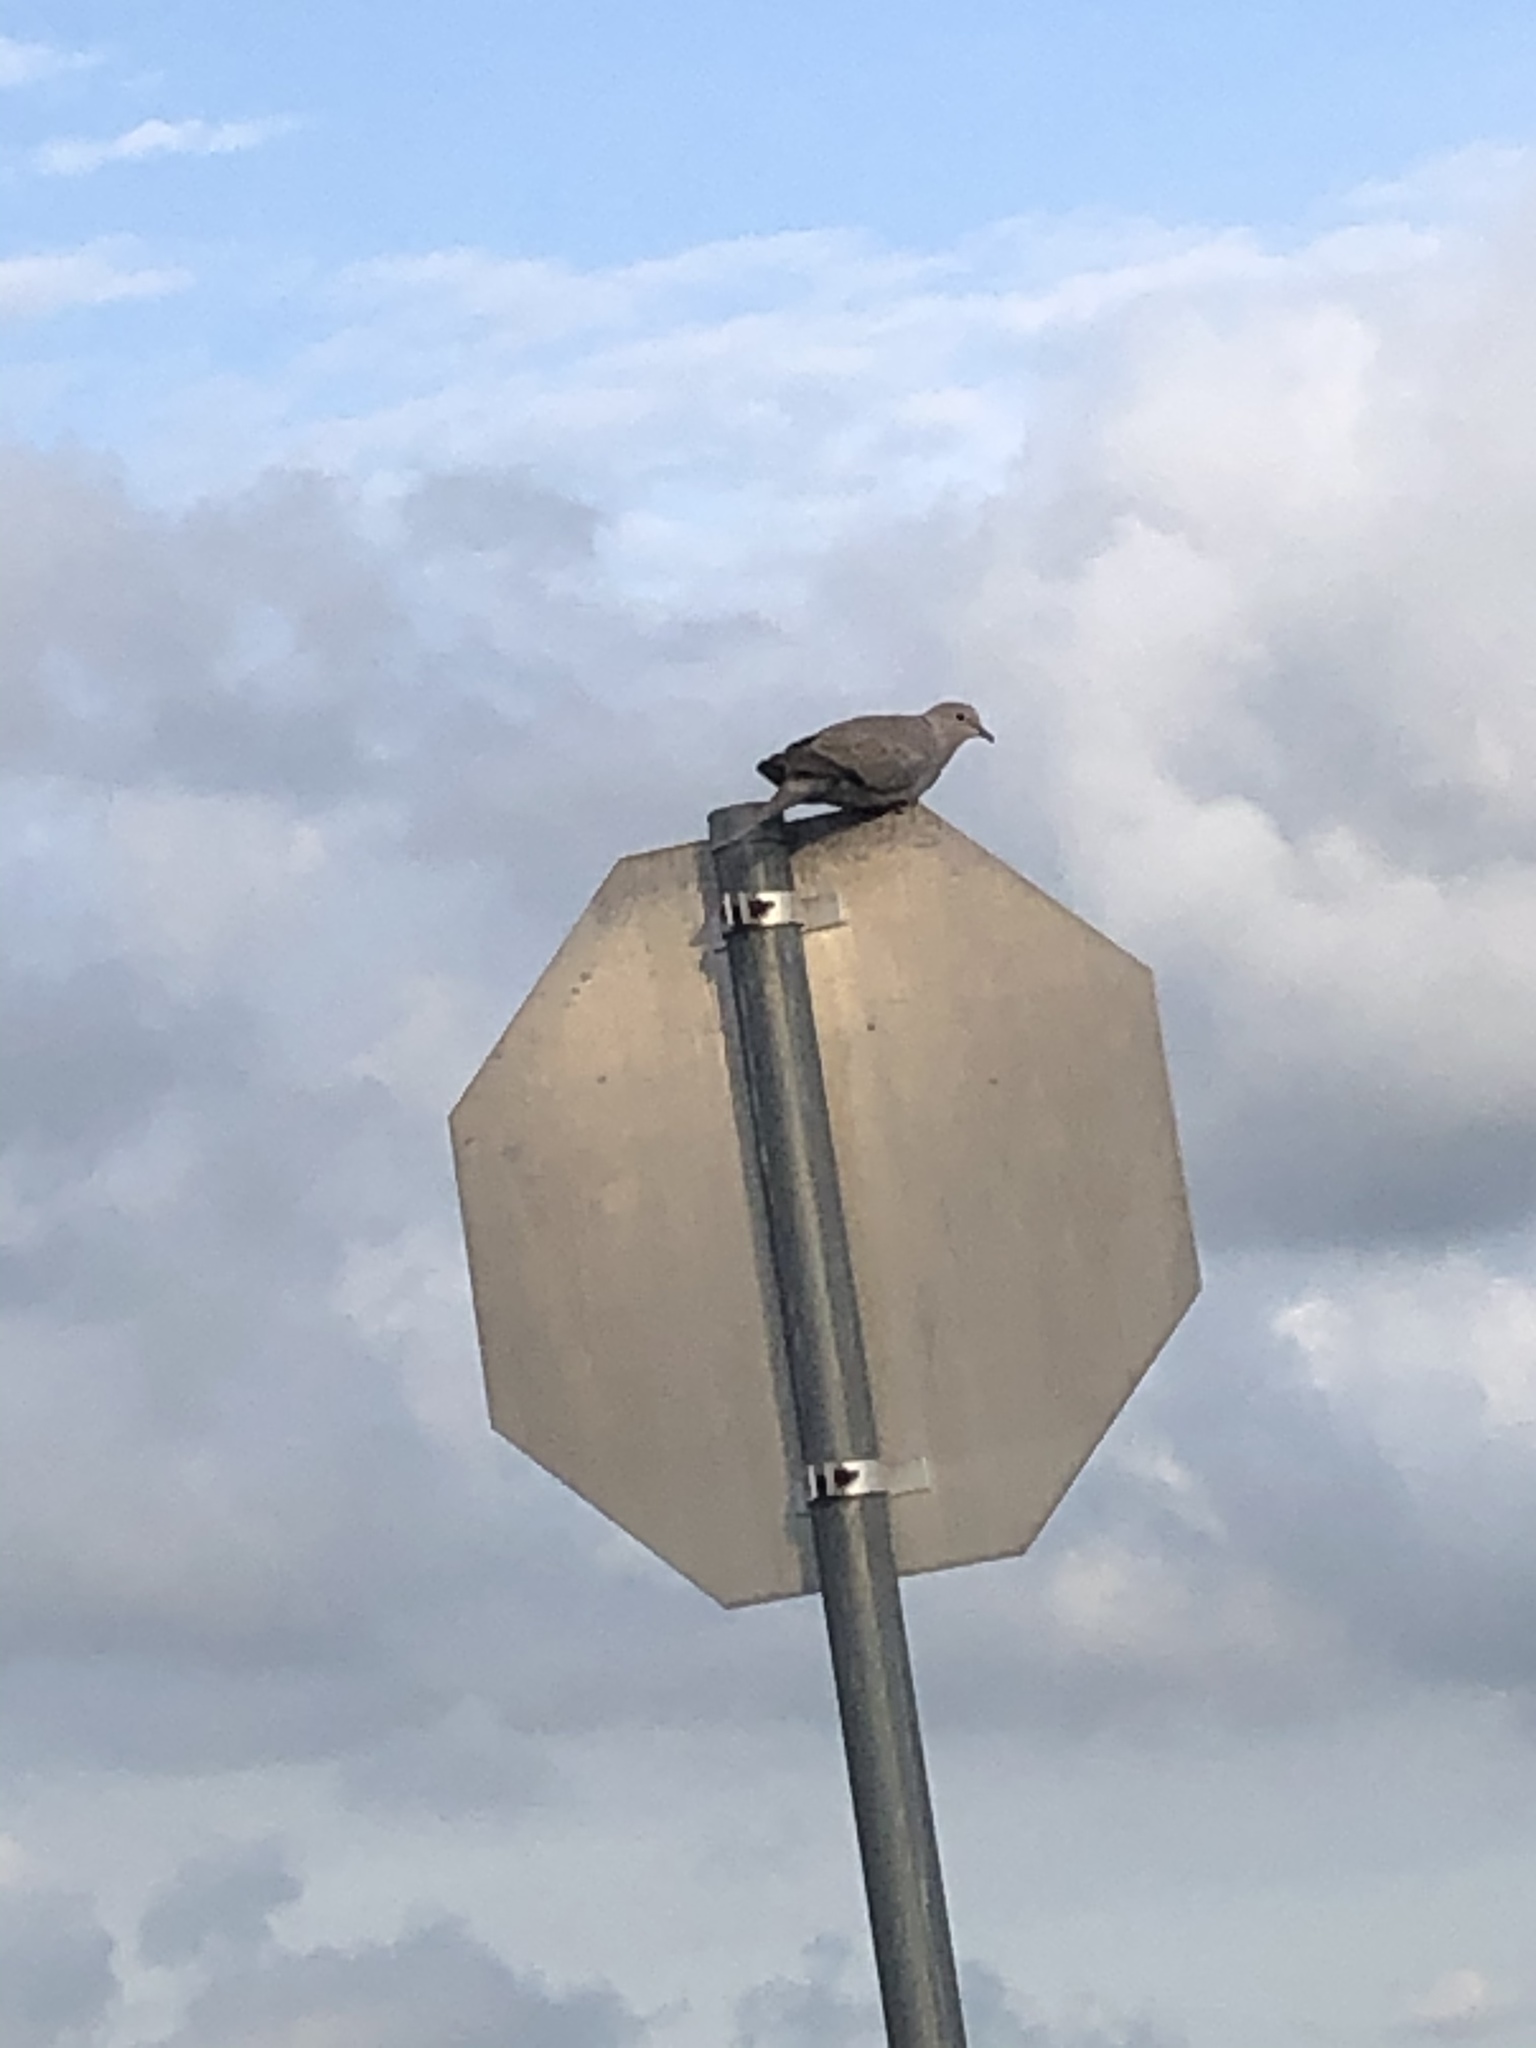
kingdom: Animalia
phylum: Chordata
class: Aves
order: Columbiformes
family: Columbidae
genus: Streptopelia
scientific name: Streptopelia decaocto
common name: Eurasian collared dove
